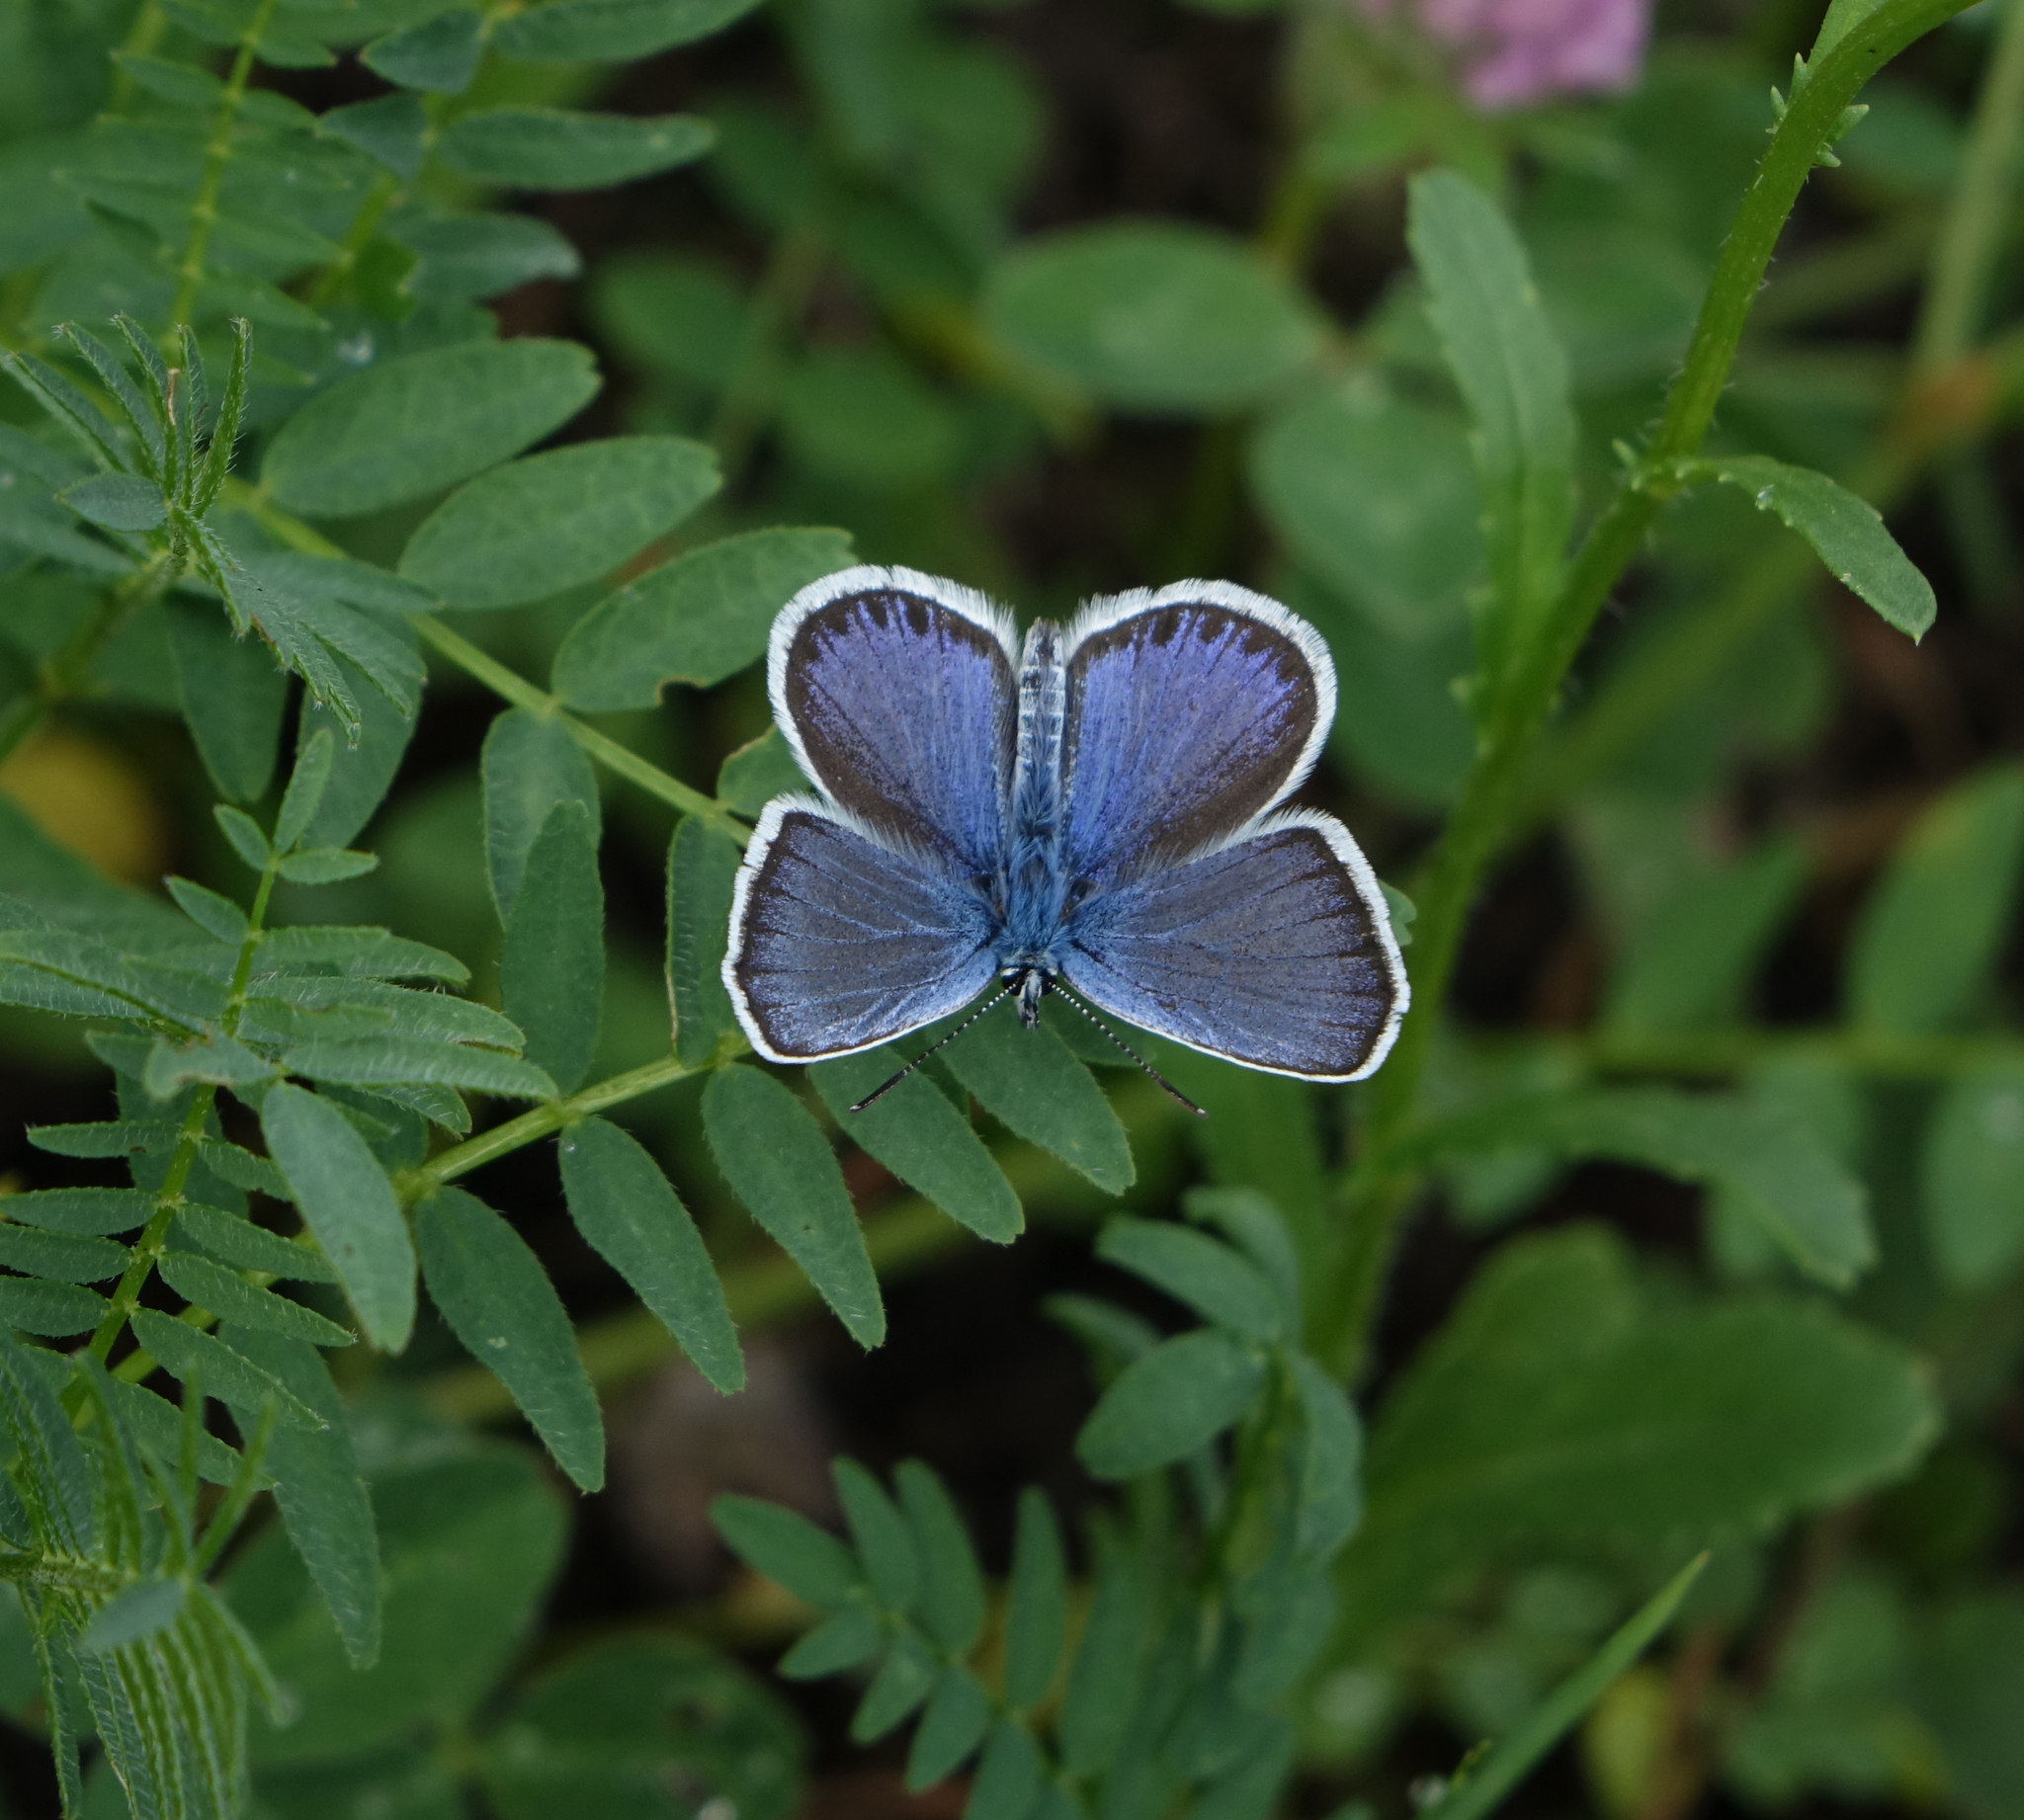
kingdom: Animalia
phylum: Arthropoda
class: Insecta
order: Lepidoptera
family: Lycaenidae
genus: Plebejus
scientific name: Plebejus argus
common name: Silver-studded blue
